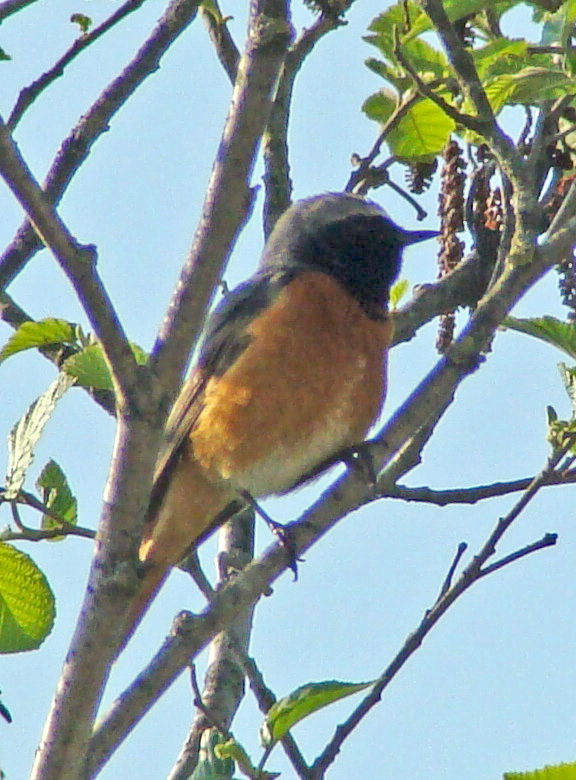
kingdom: Animalia
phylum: Chordata
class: Aves
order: Passeriformes
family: Muscicapidae
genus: Phoenicurus
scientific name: Phoenicurus phoenicurus
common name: Common redstart
